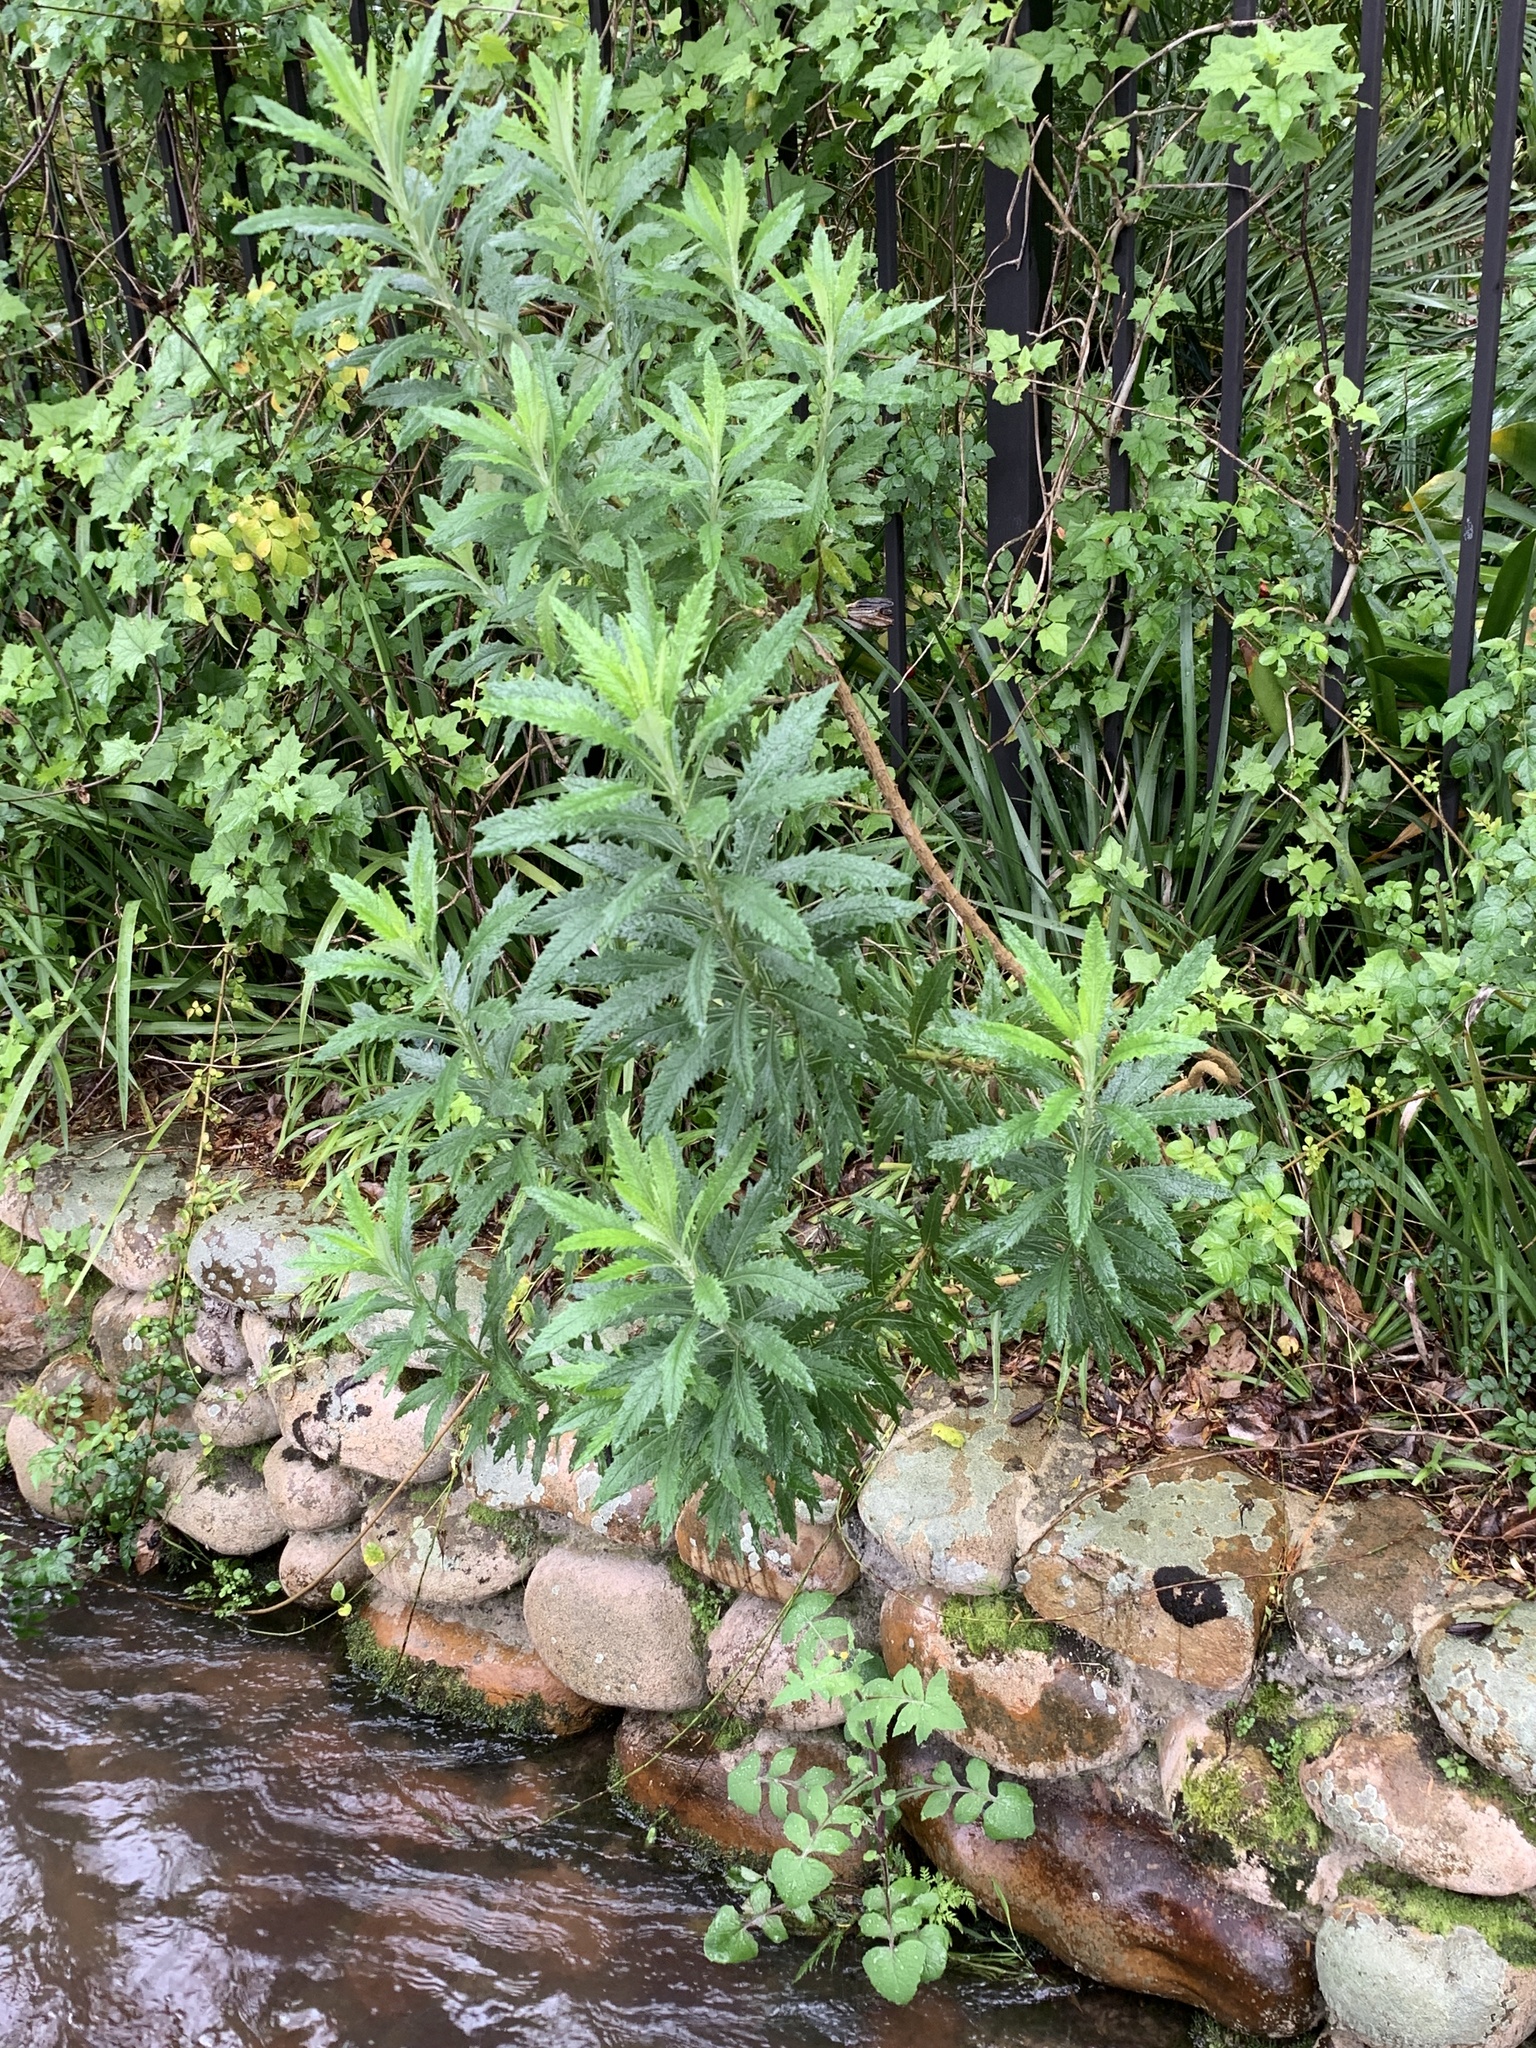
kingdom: Plantae
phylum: Tracheophyta
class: Magnoliopsida
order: Asterales
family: Asteraceae
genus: Senecio
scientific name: Senecio pterophorus
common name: Shoddy ragwort
